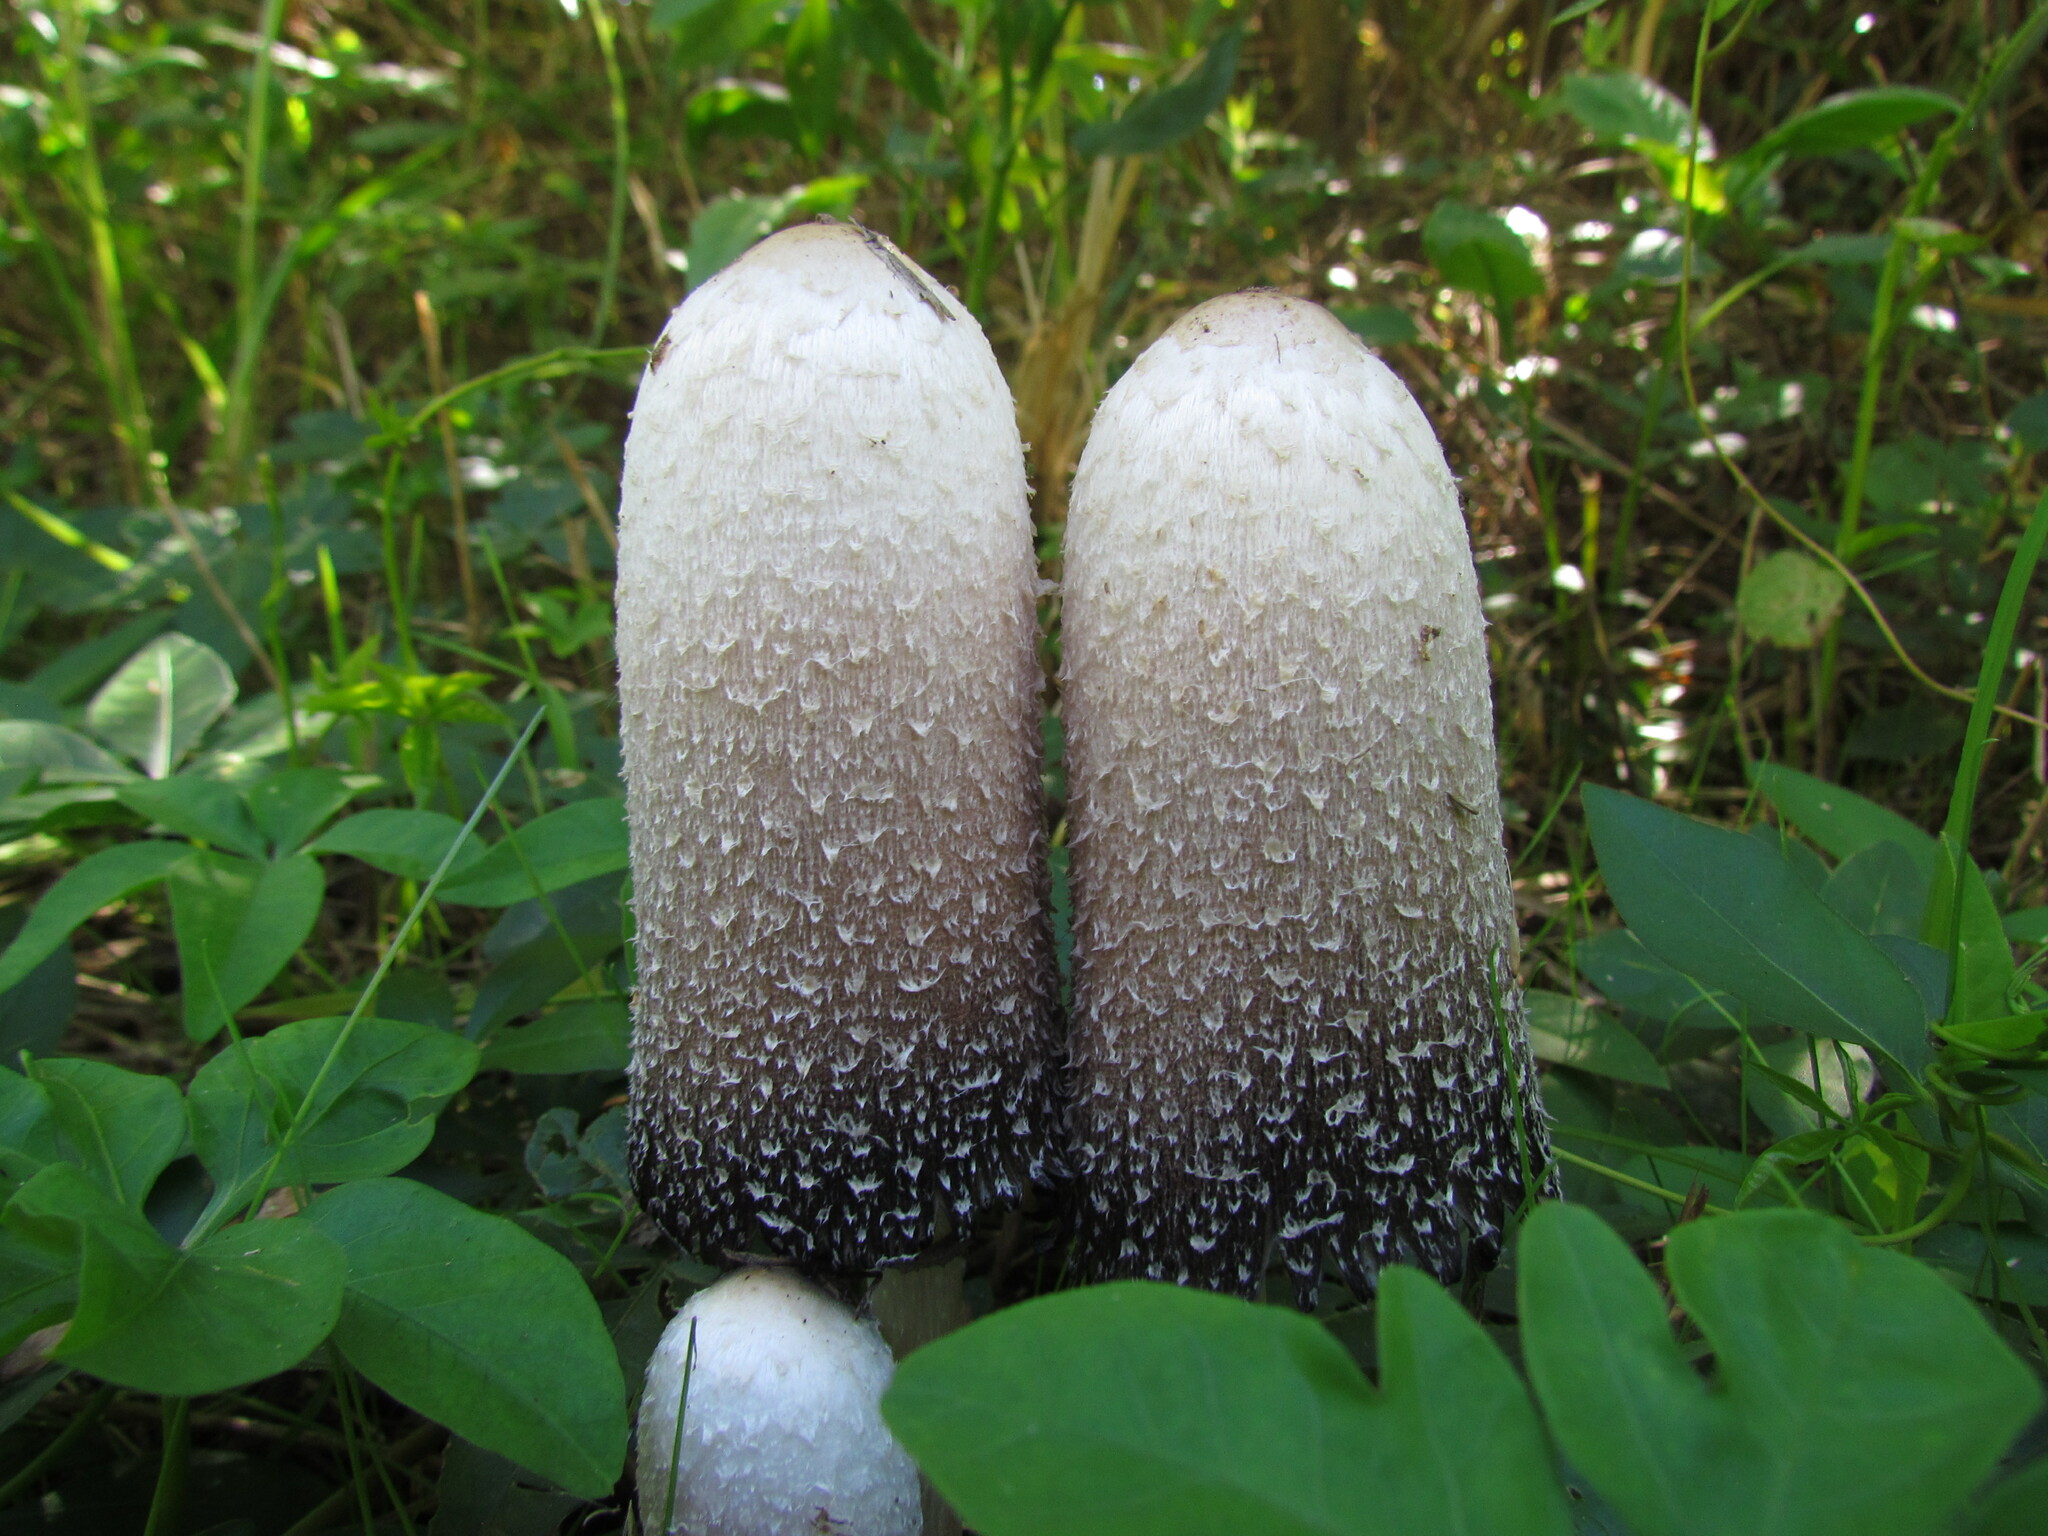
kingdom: Fungi
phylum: Basidiomycota
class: Agaricomycetes
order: Agaricales
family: Agaricaceae
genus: Coprinus
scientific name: Coprinus comatus
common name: Lawyer's wig
